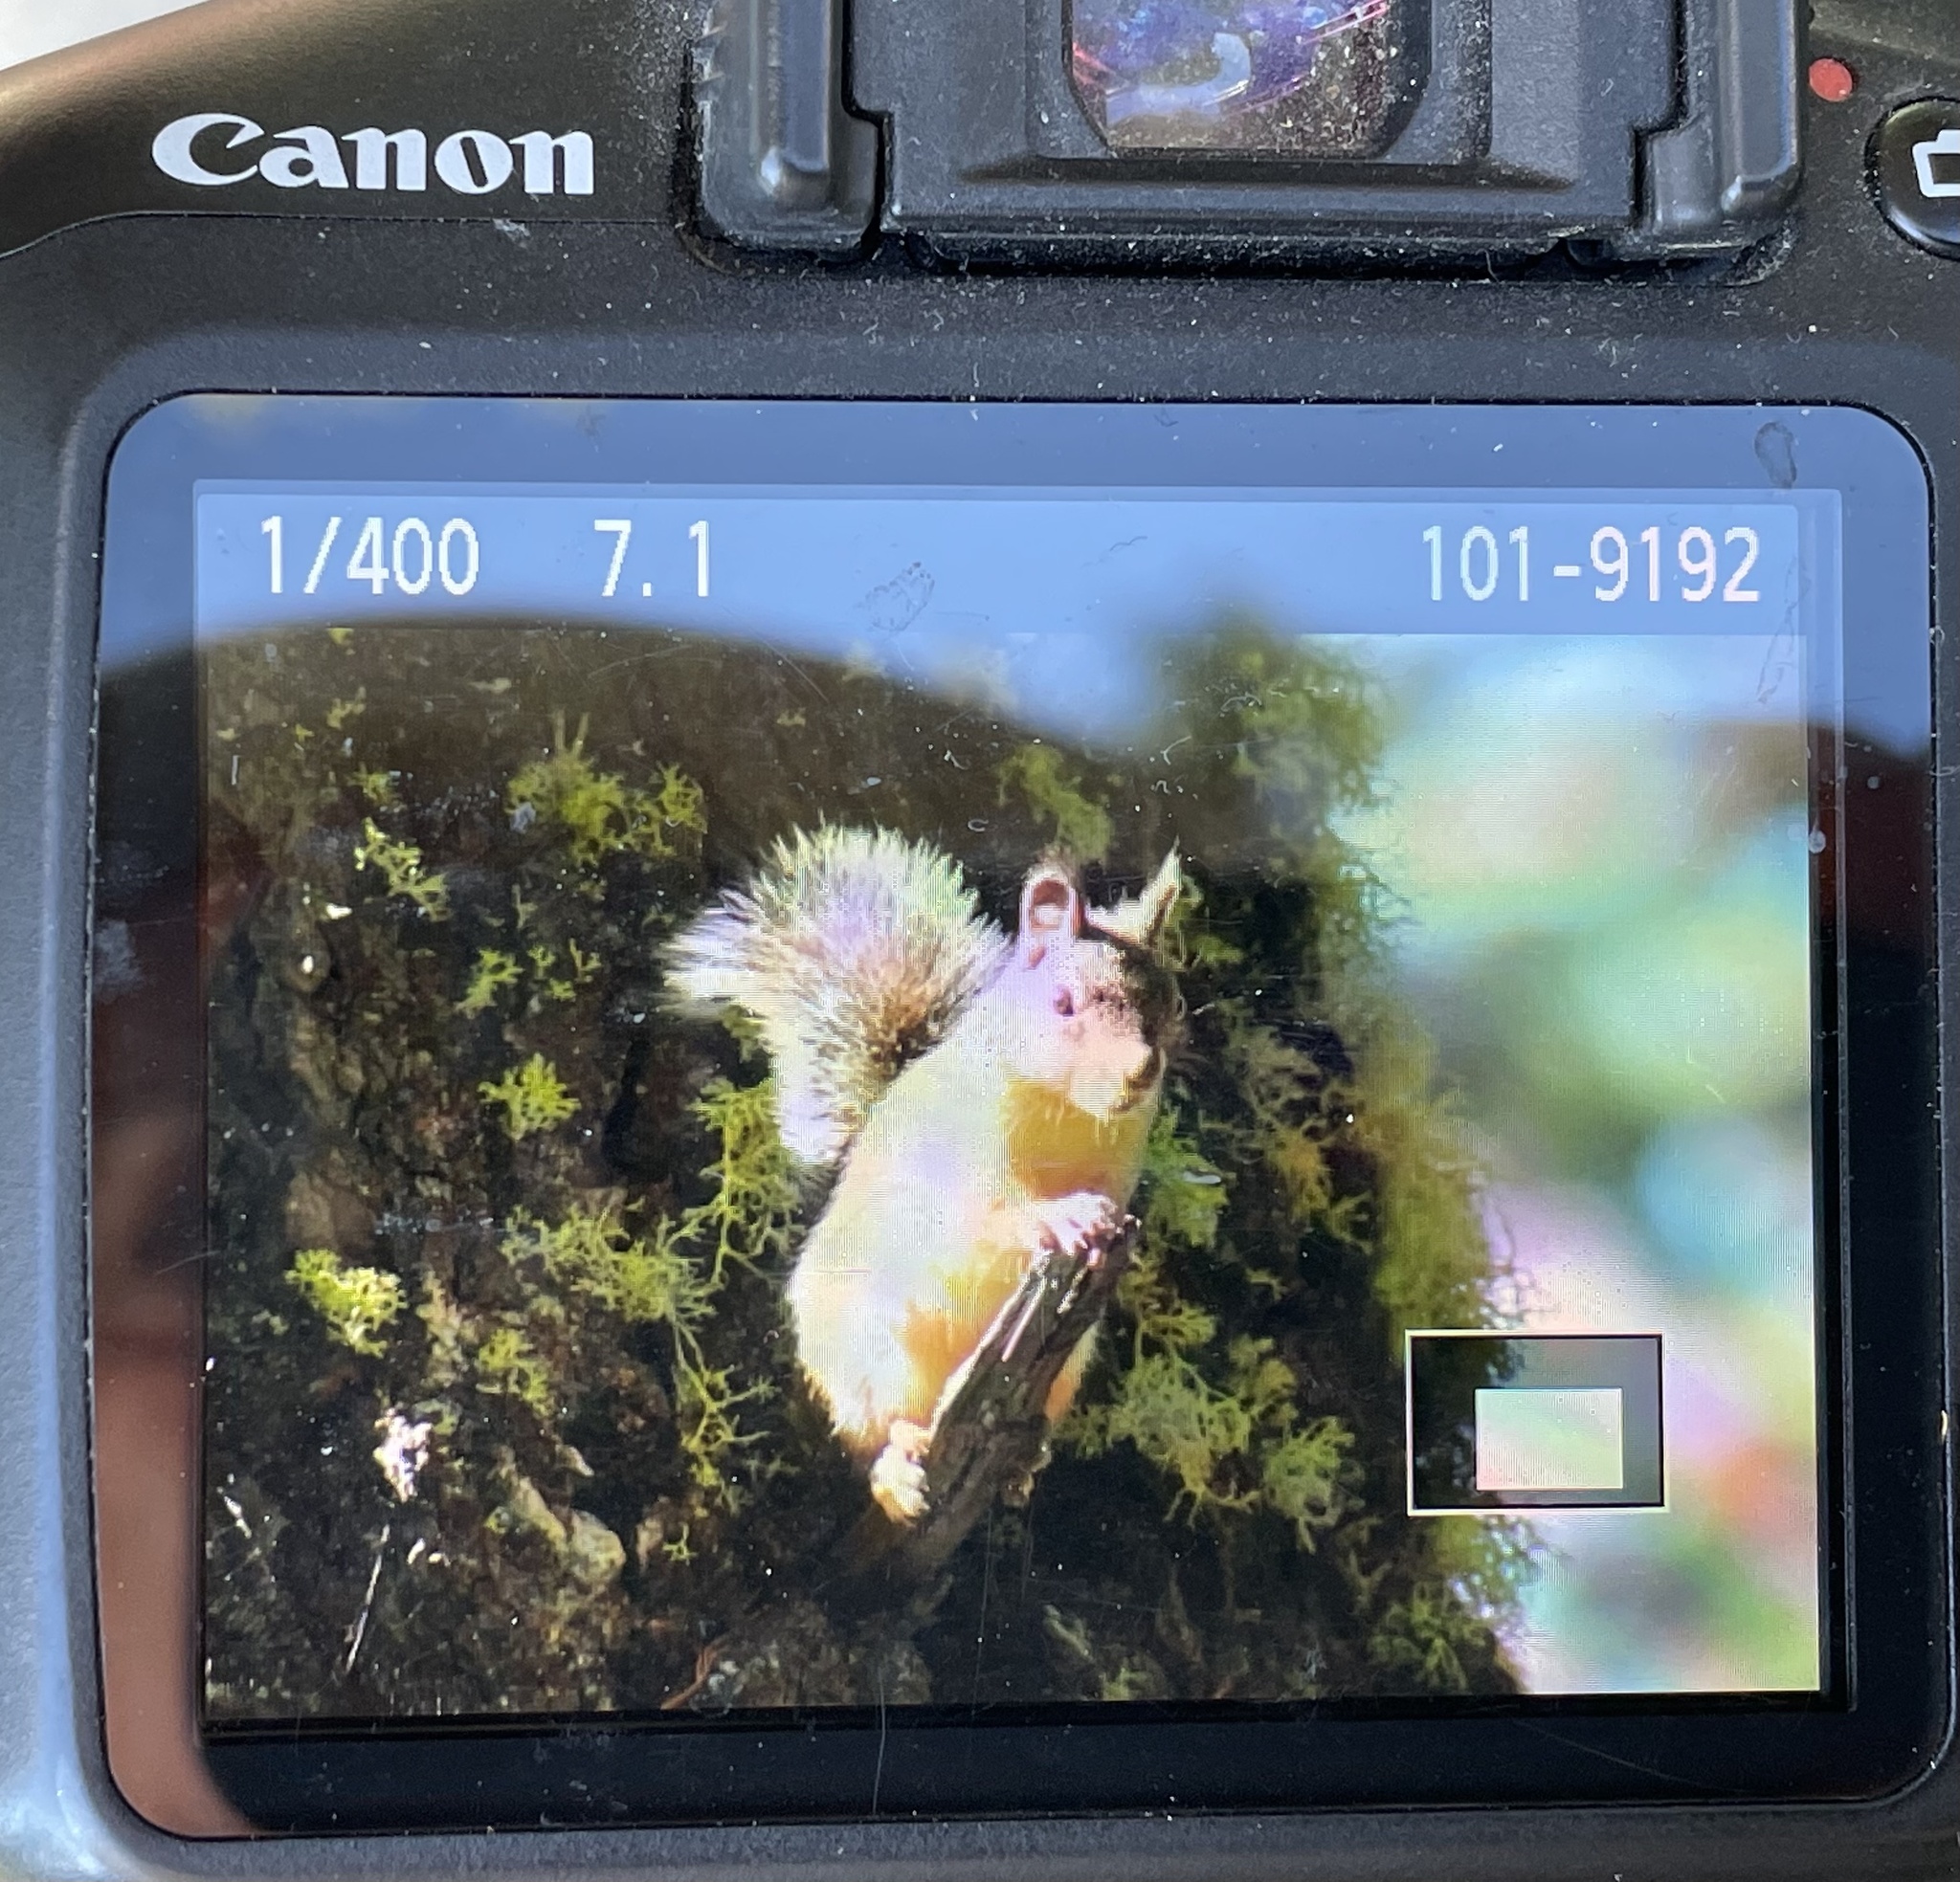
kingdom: Animalia
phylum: Chordata
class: Mammalia
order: Rodentia
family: Sciuridae
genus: Tamiasciurus
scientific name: Tamiasciurus douglasii
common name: Douglas's squirrel
